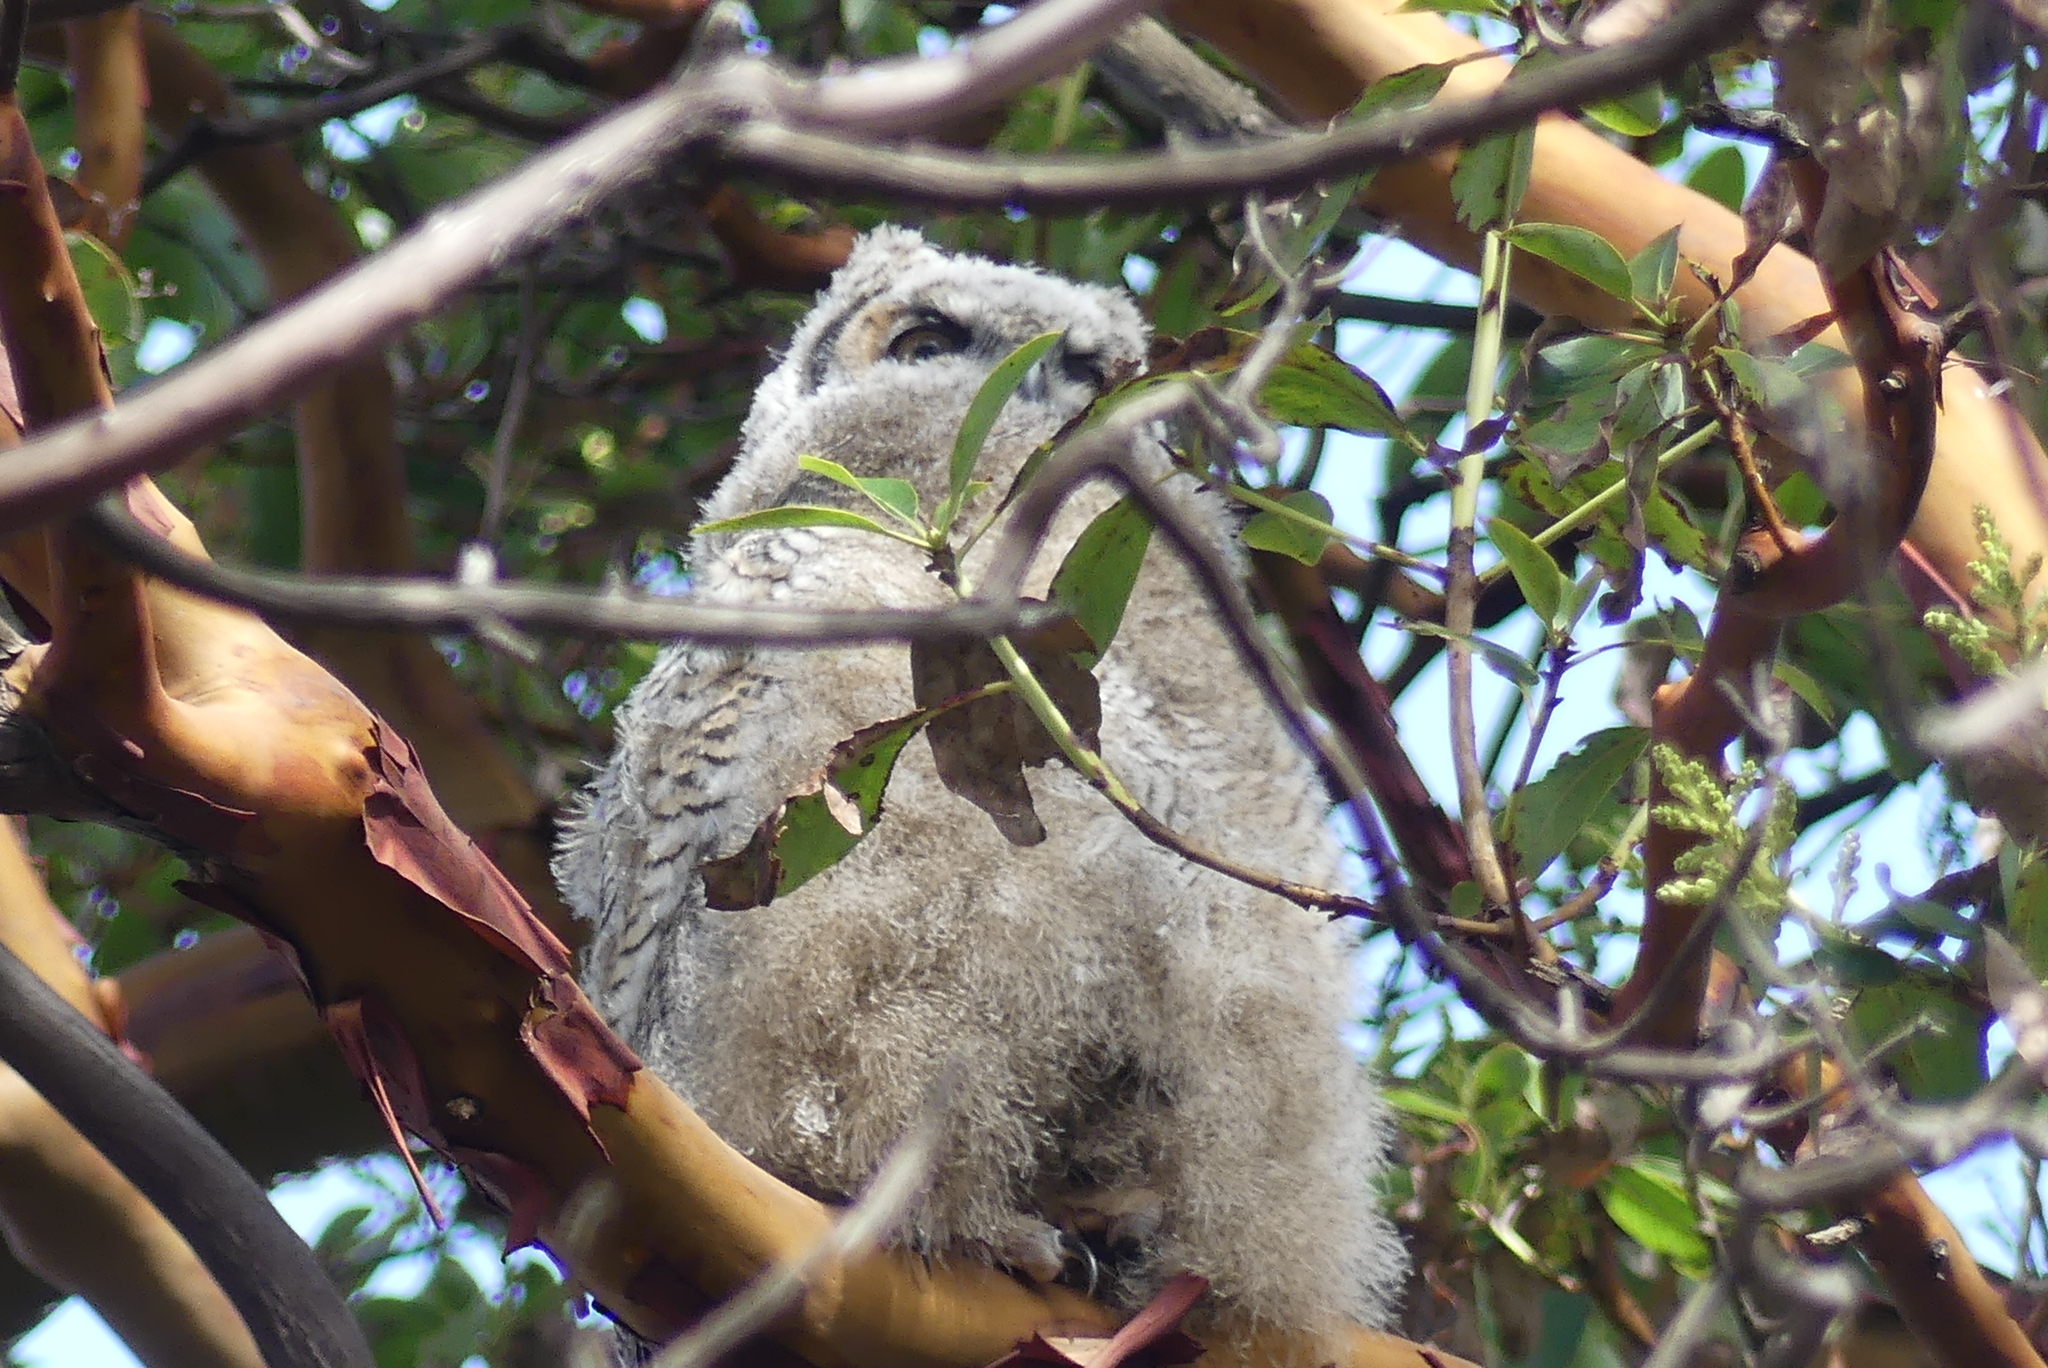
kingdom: Animalia
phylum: Chordata
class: Aves
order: Strigiformes
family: Strigidae
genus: Bubo
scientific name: Bubo virginianus
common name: Great horned owl
